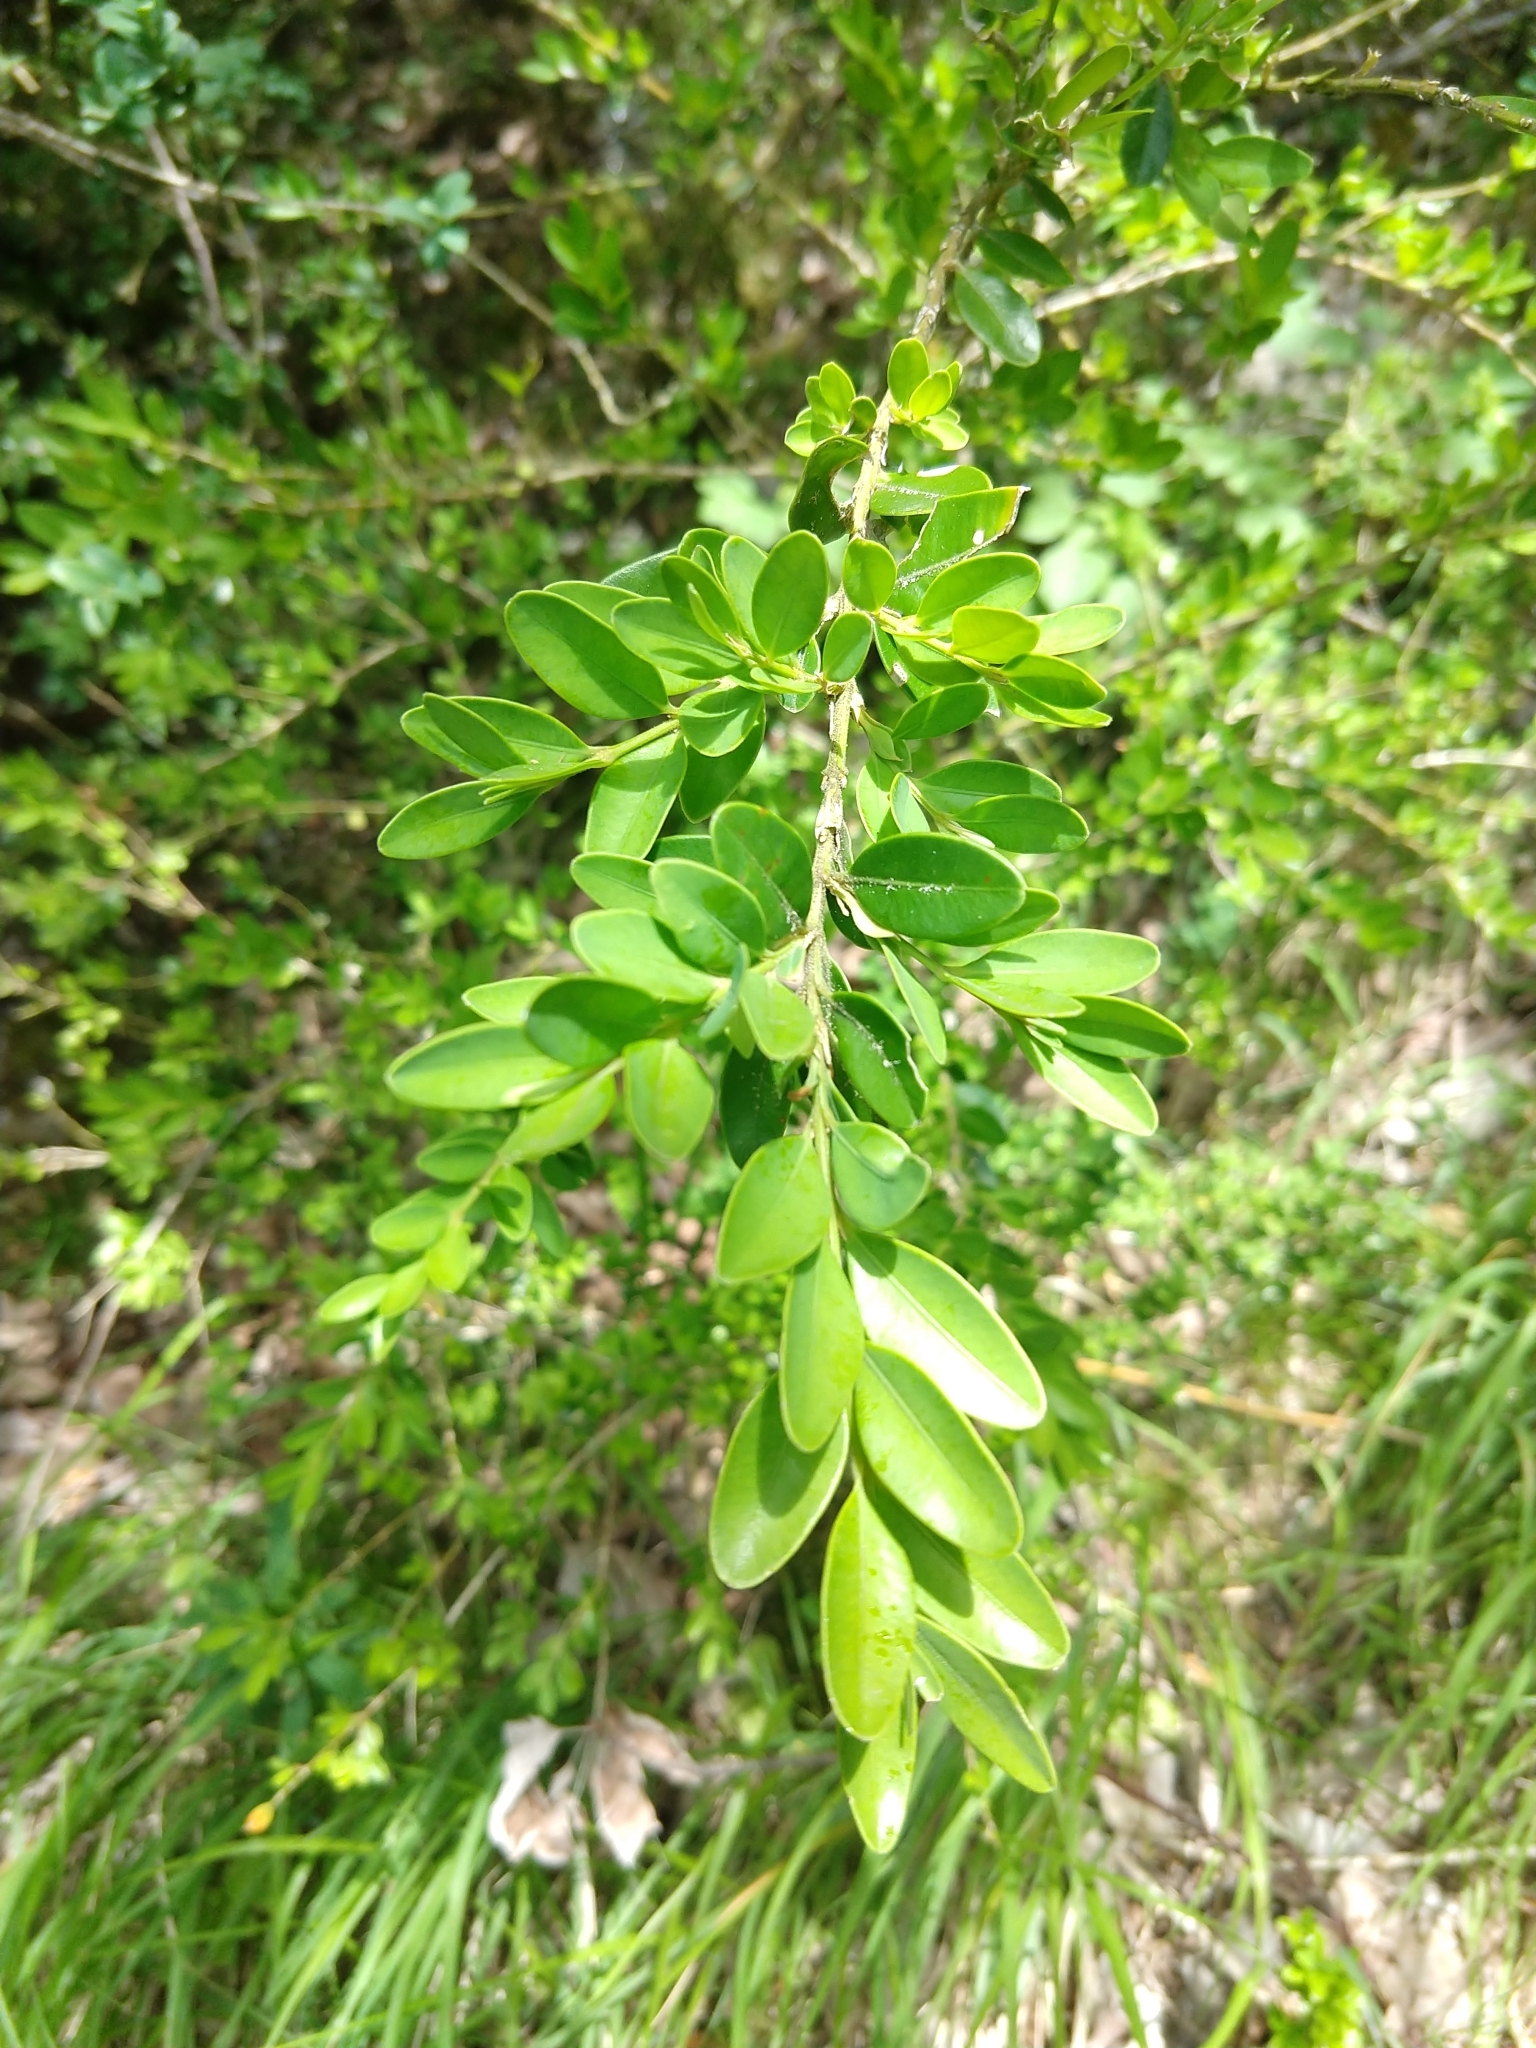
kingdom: Plantae
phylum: Tracheophyta
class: Magnoliopsida
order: Buxales
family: Buxaceae
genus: Buxus
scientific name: Buxus sempervirens
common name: Box
